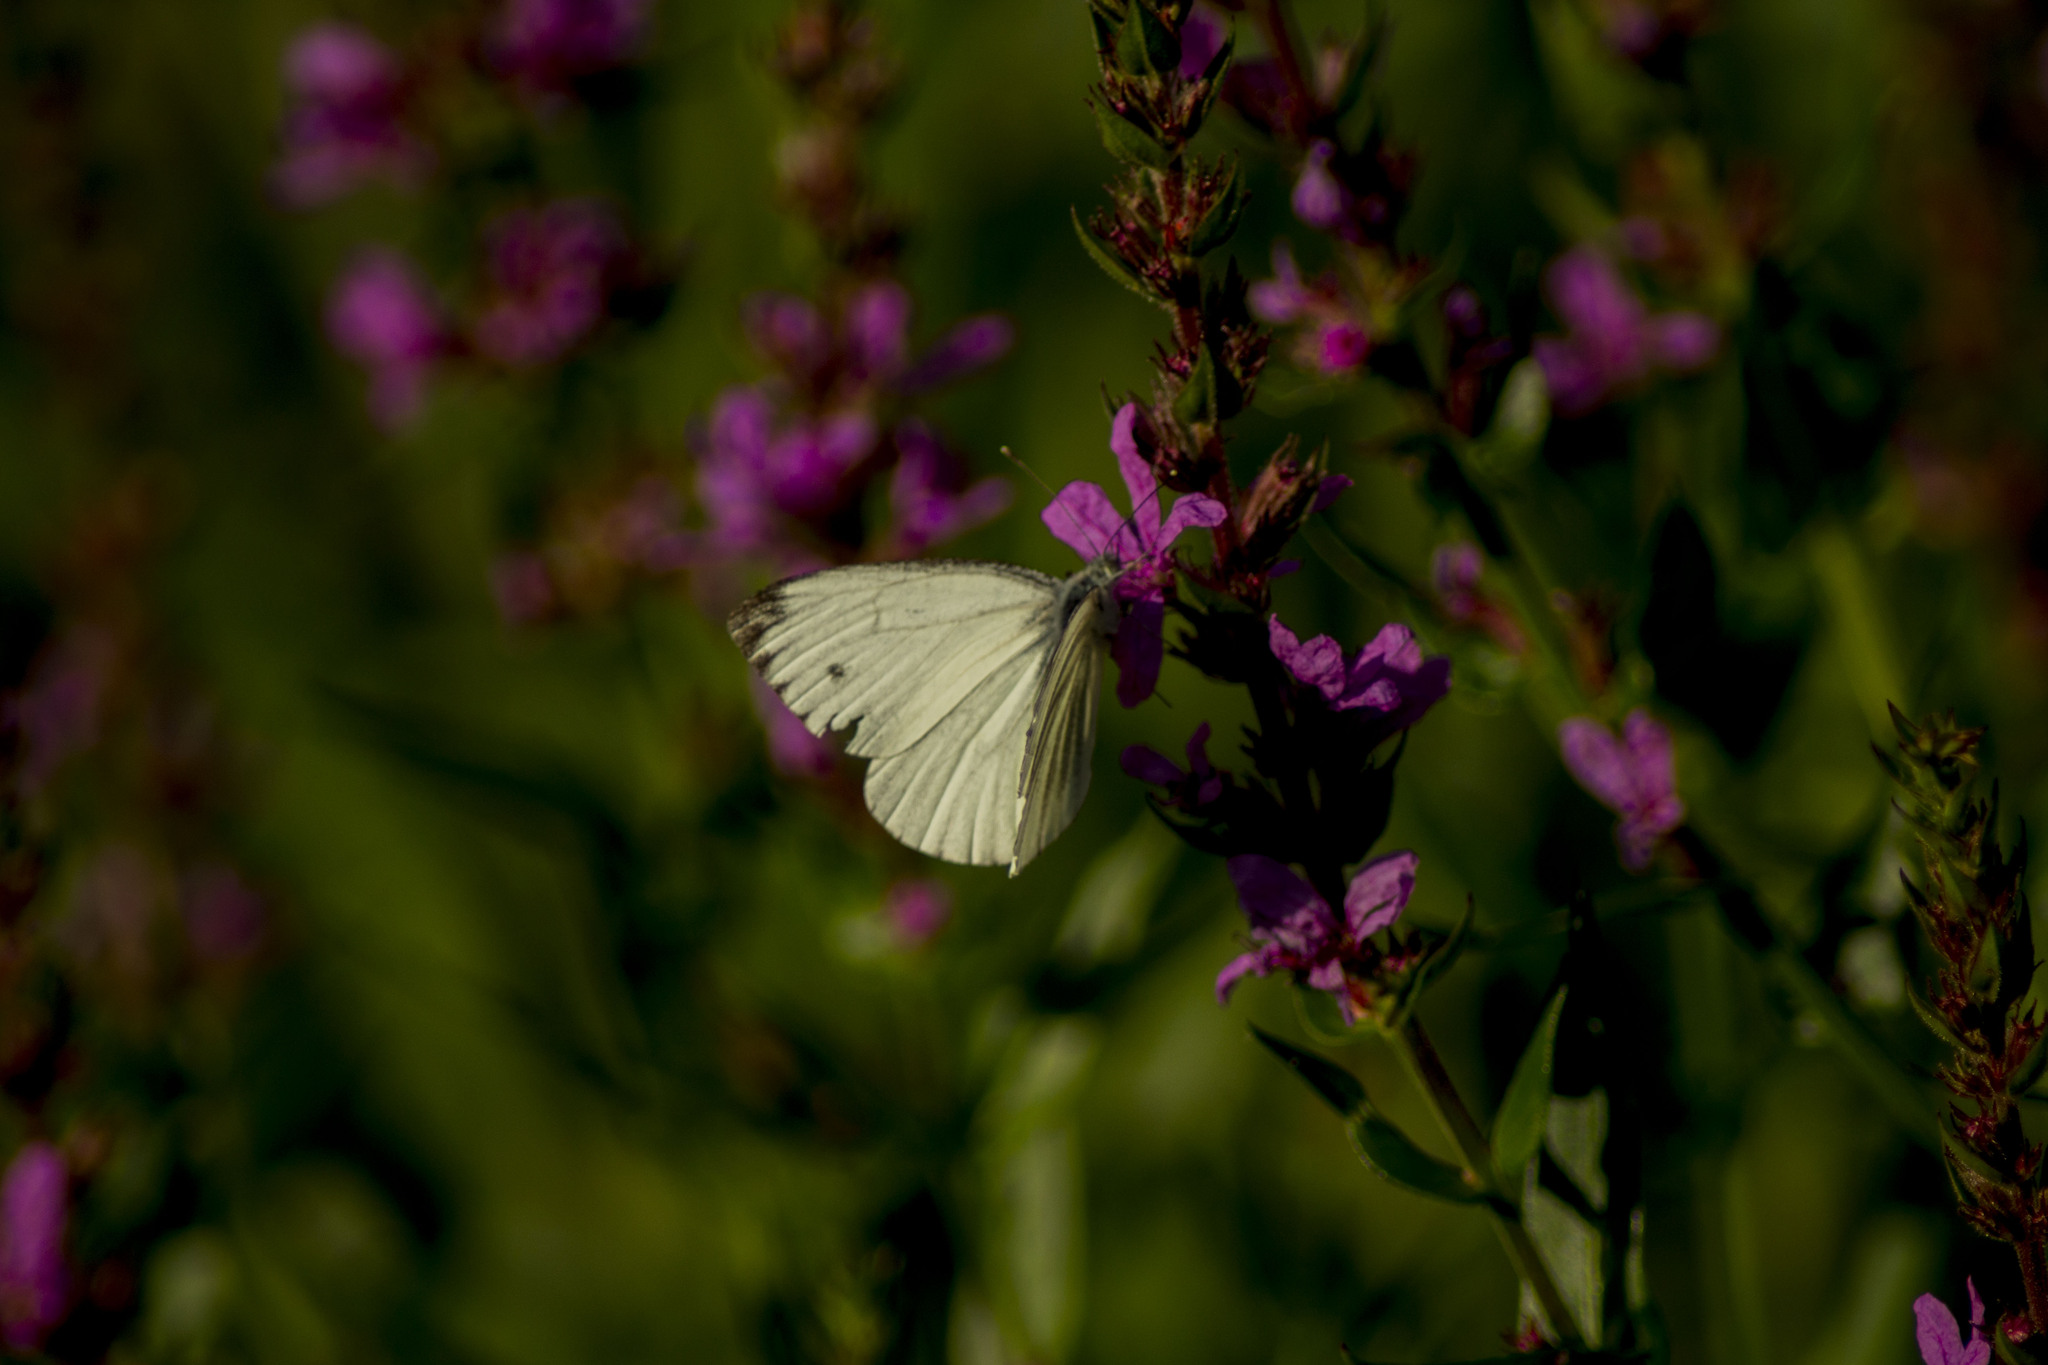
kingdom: Animalia
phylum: Arthropoda
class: Insecta
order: Lepidoptera
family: Pieridae
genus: Pieris
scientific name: Pieris napi
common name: Green-veined white
